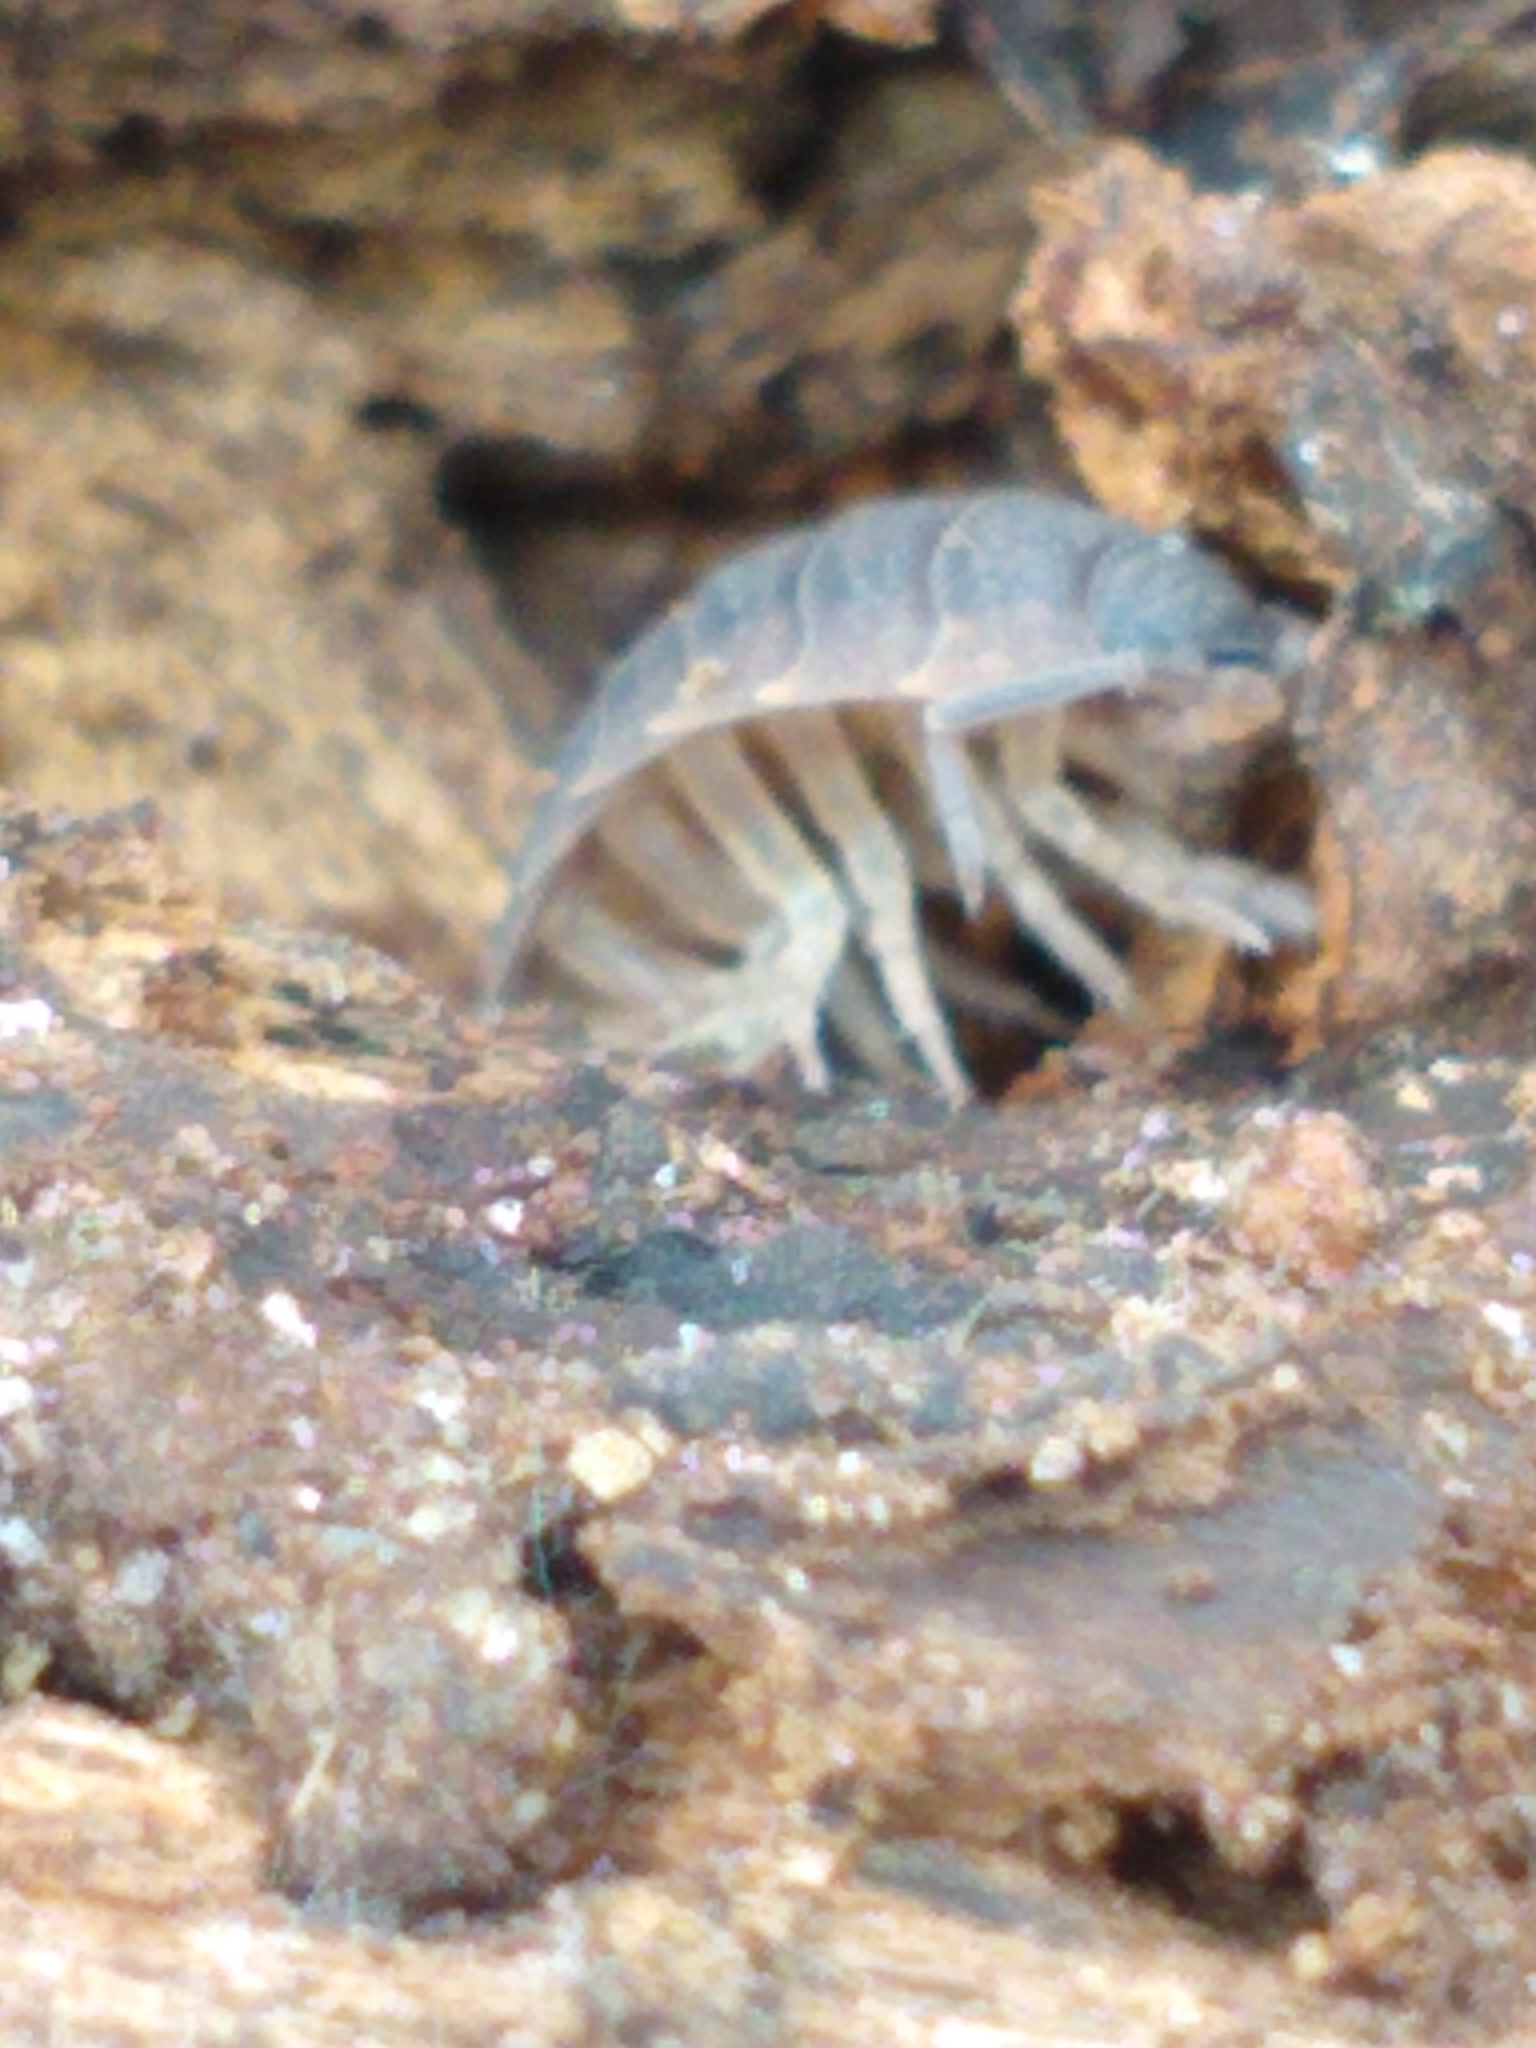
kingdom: Animalia
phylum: Arthropoda
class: Malacostraca
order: Isopoda
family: Porcellionidae
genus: Porcellio
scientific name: Porcellio scaber
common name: Common rough woodlouse
